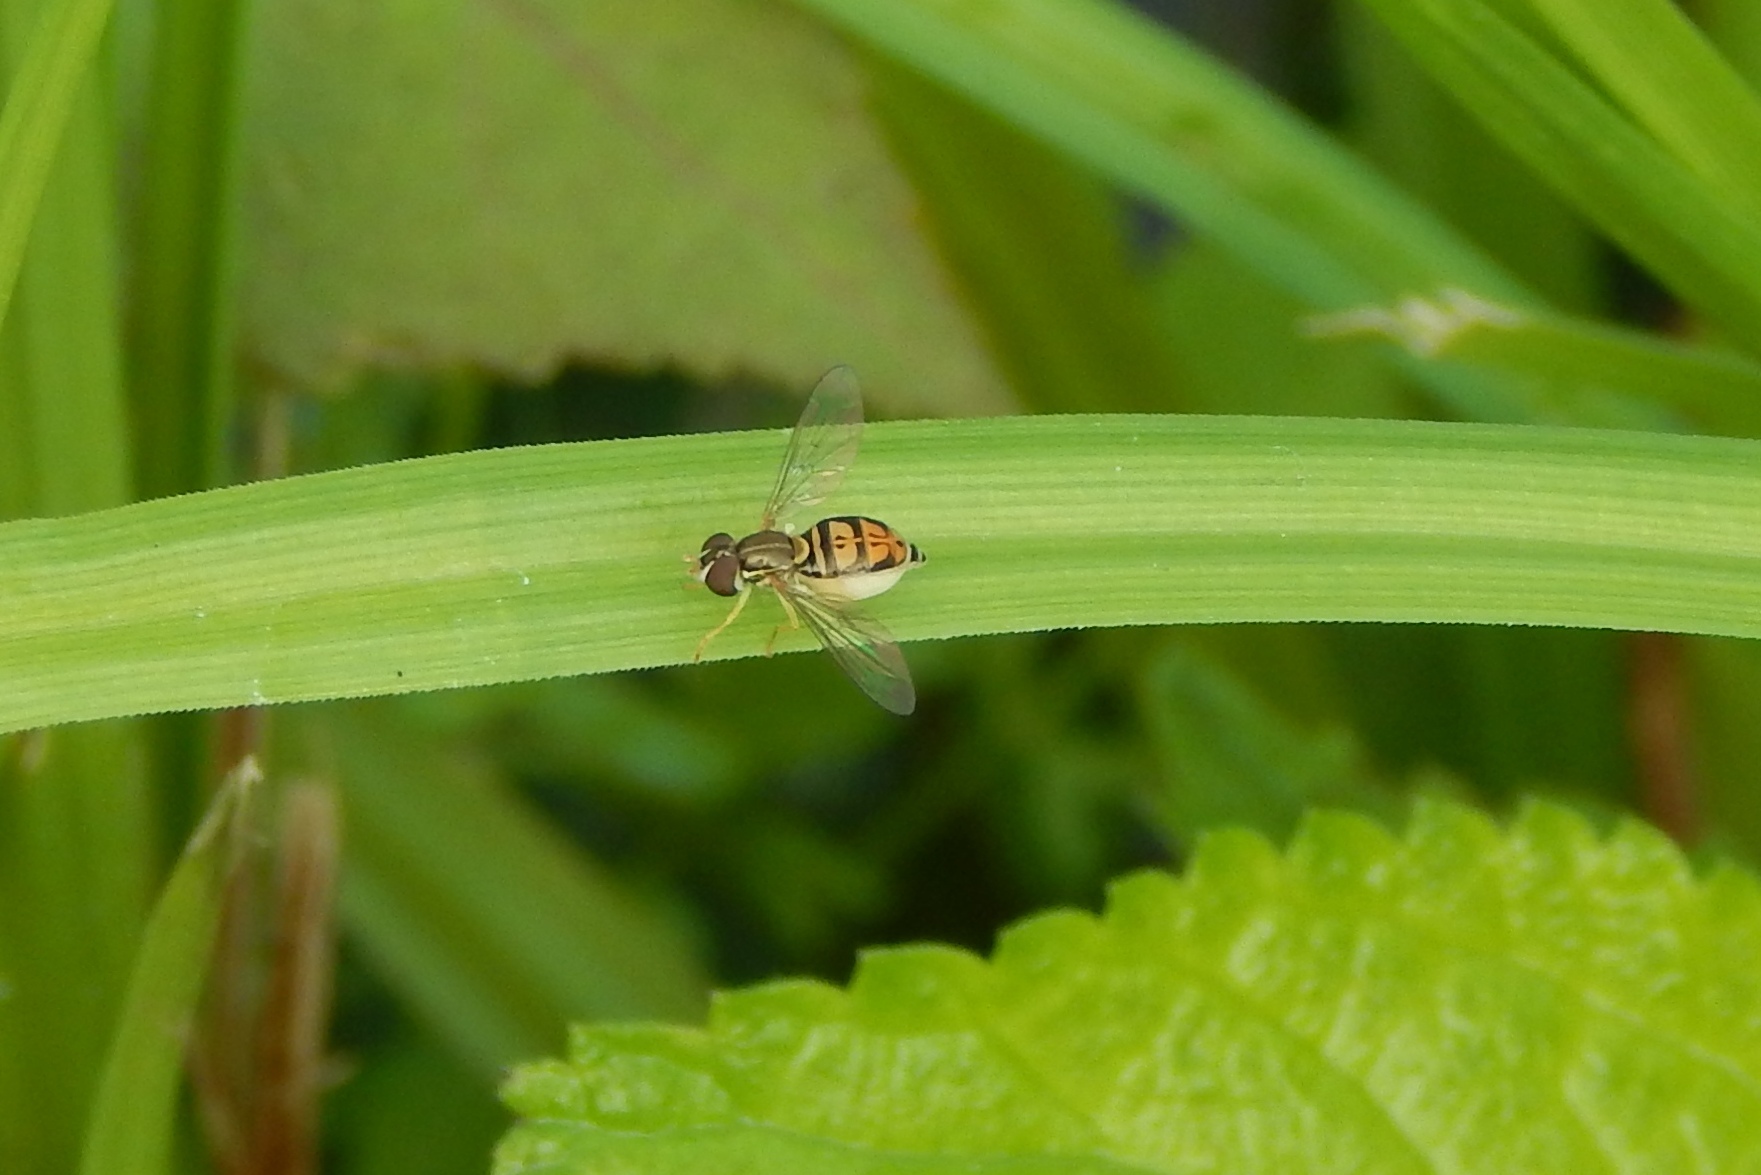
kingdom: Animalia
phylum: Arthropoda
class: Insecta
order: Diptera
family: Syrphidae
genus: Toxomerus
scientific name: Toxomerus marginatus
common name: Syrphid fly
